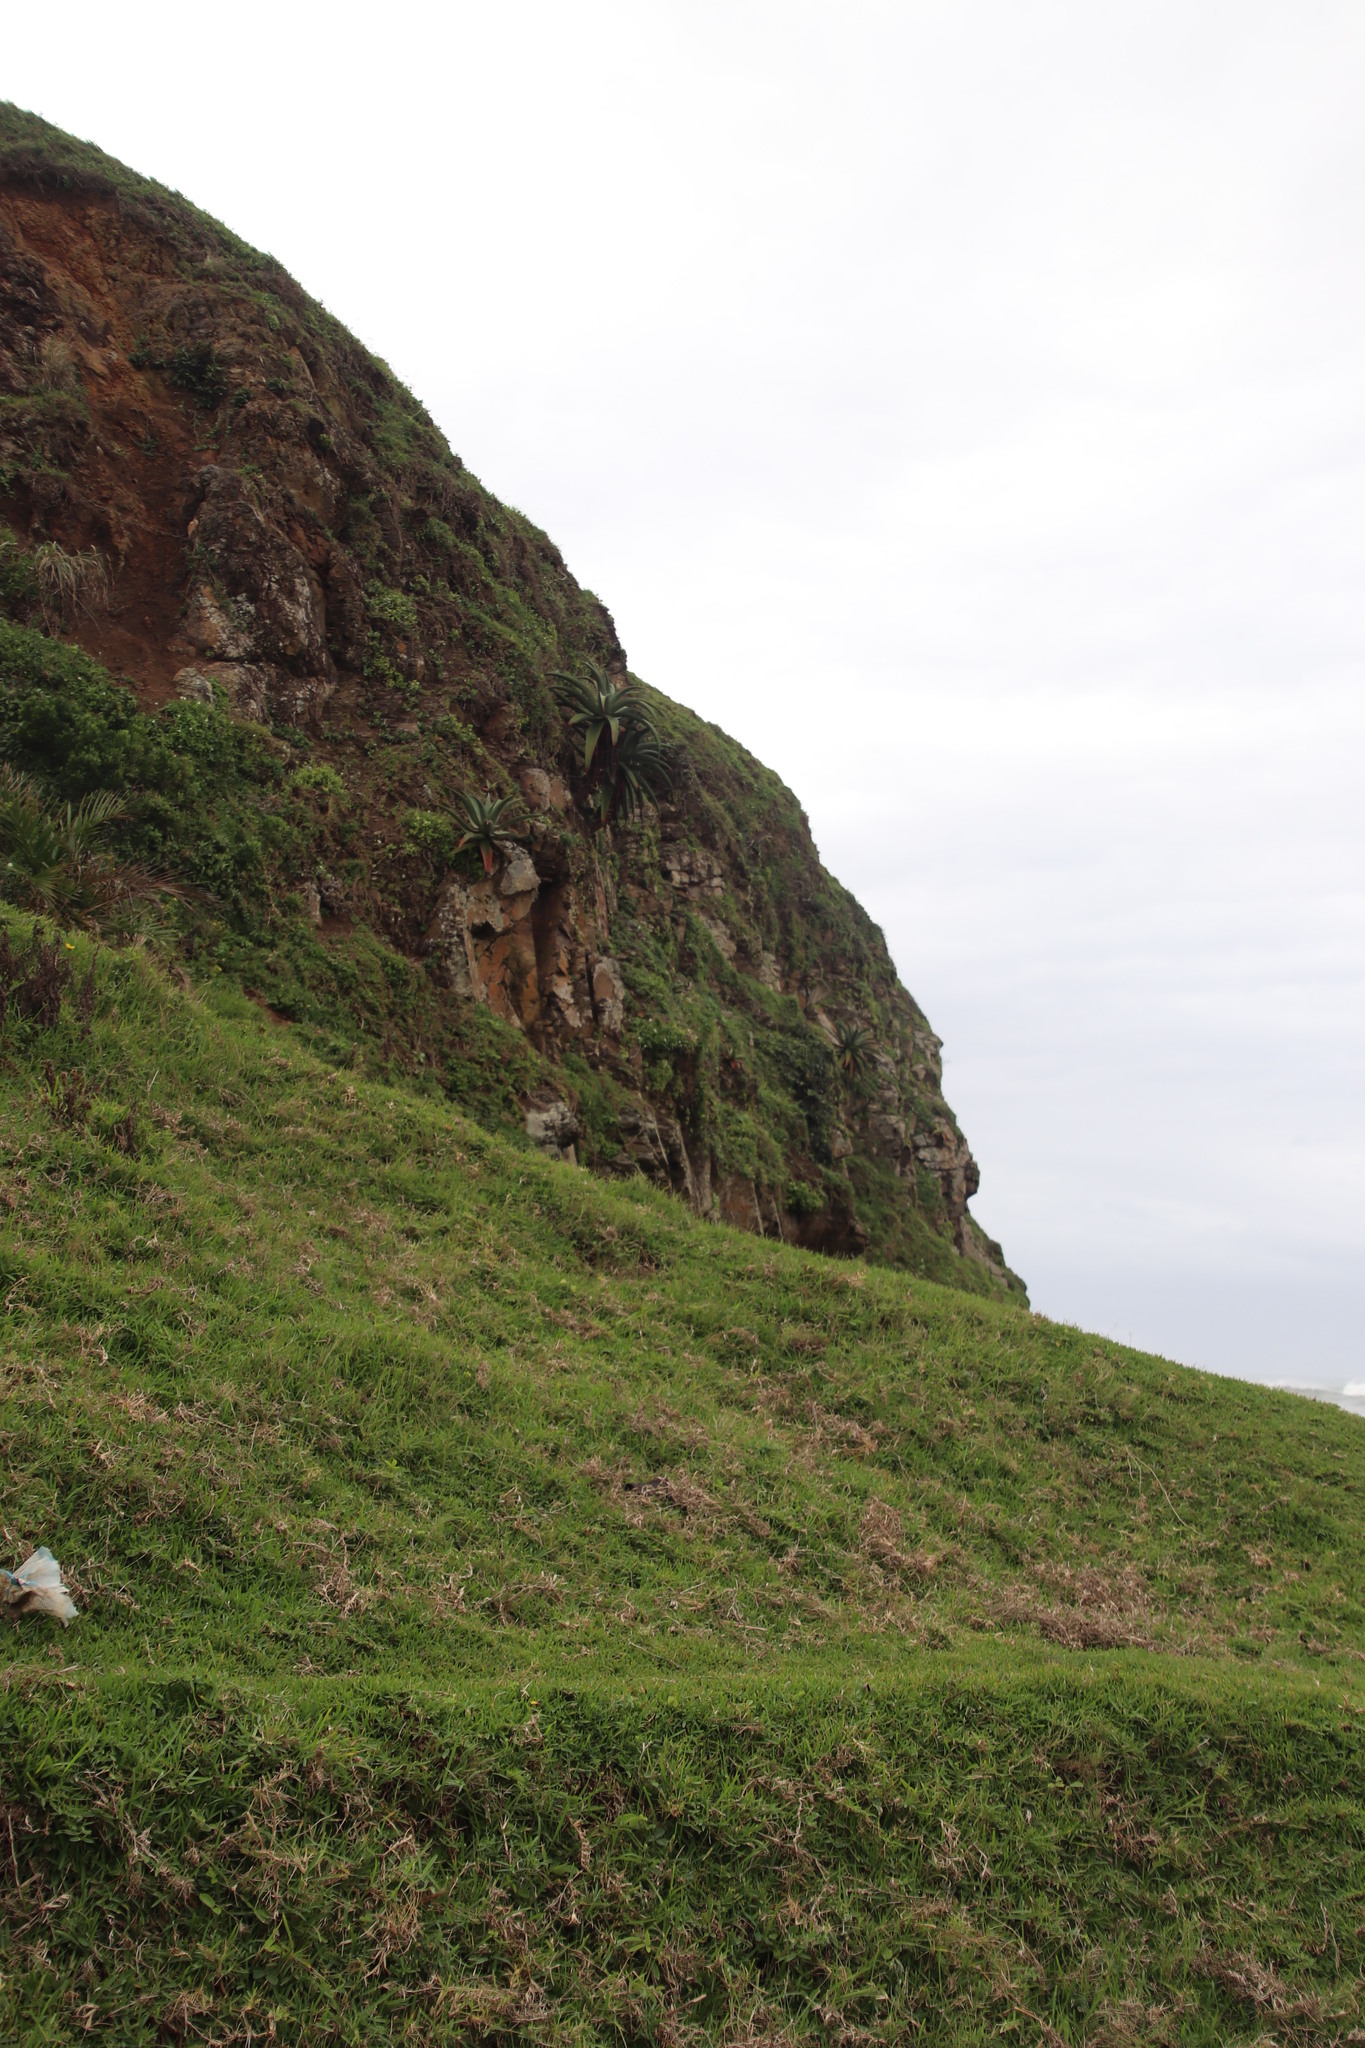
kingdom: Plantae
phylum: Tracheophyta
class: Liliopsida
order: Poales
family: Poaceae
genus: Stenotaphrum
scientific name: Stenotaphrum secundatum
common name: St. augustine grass
